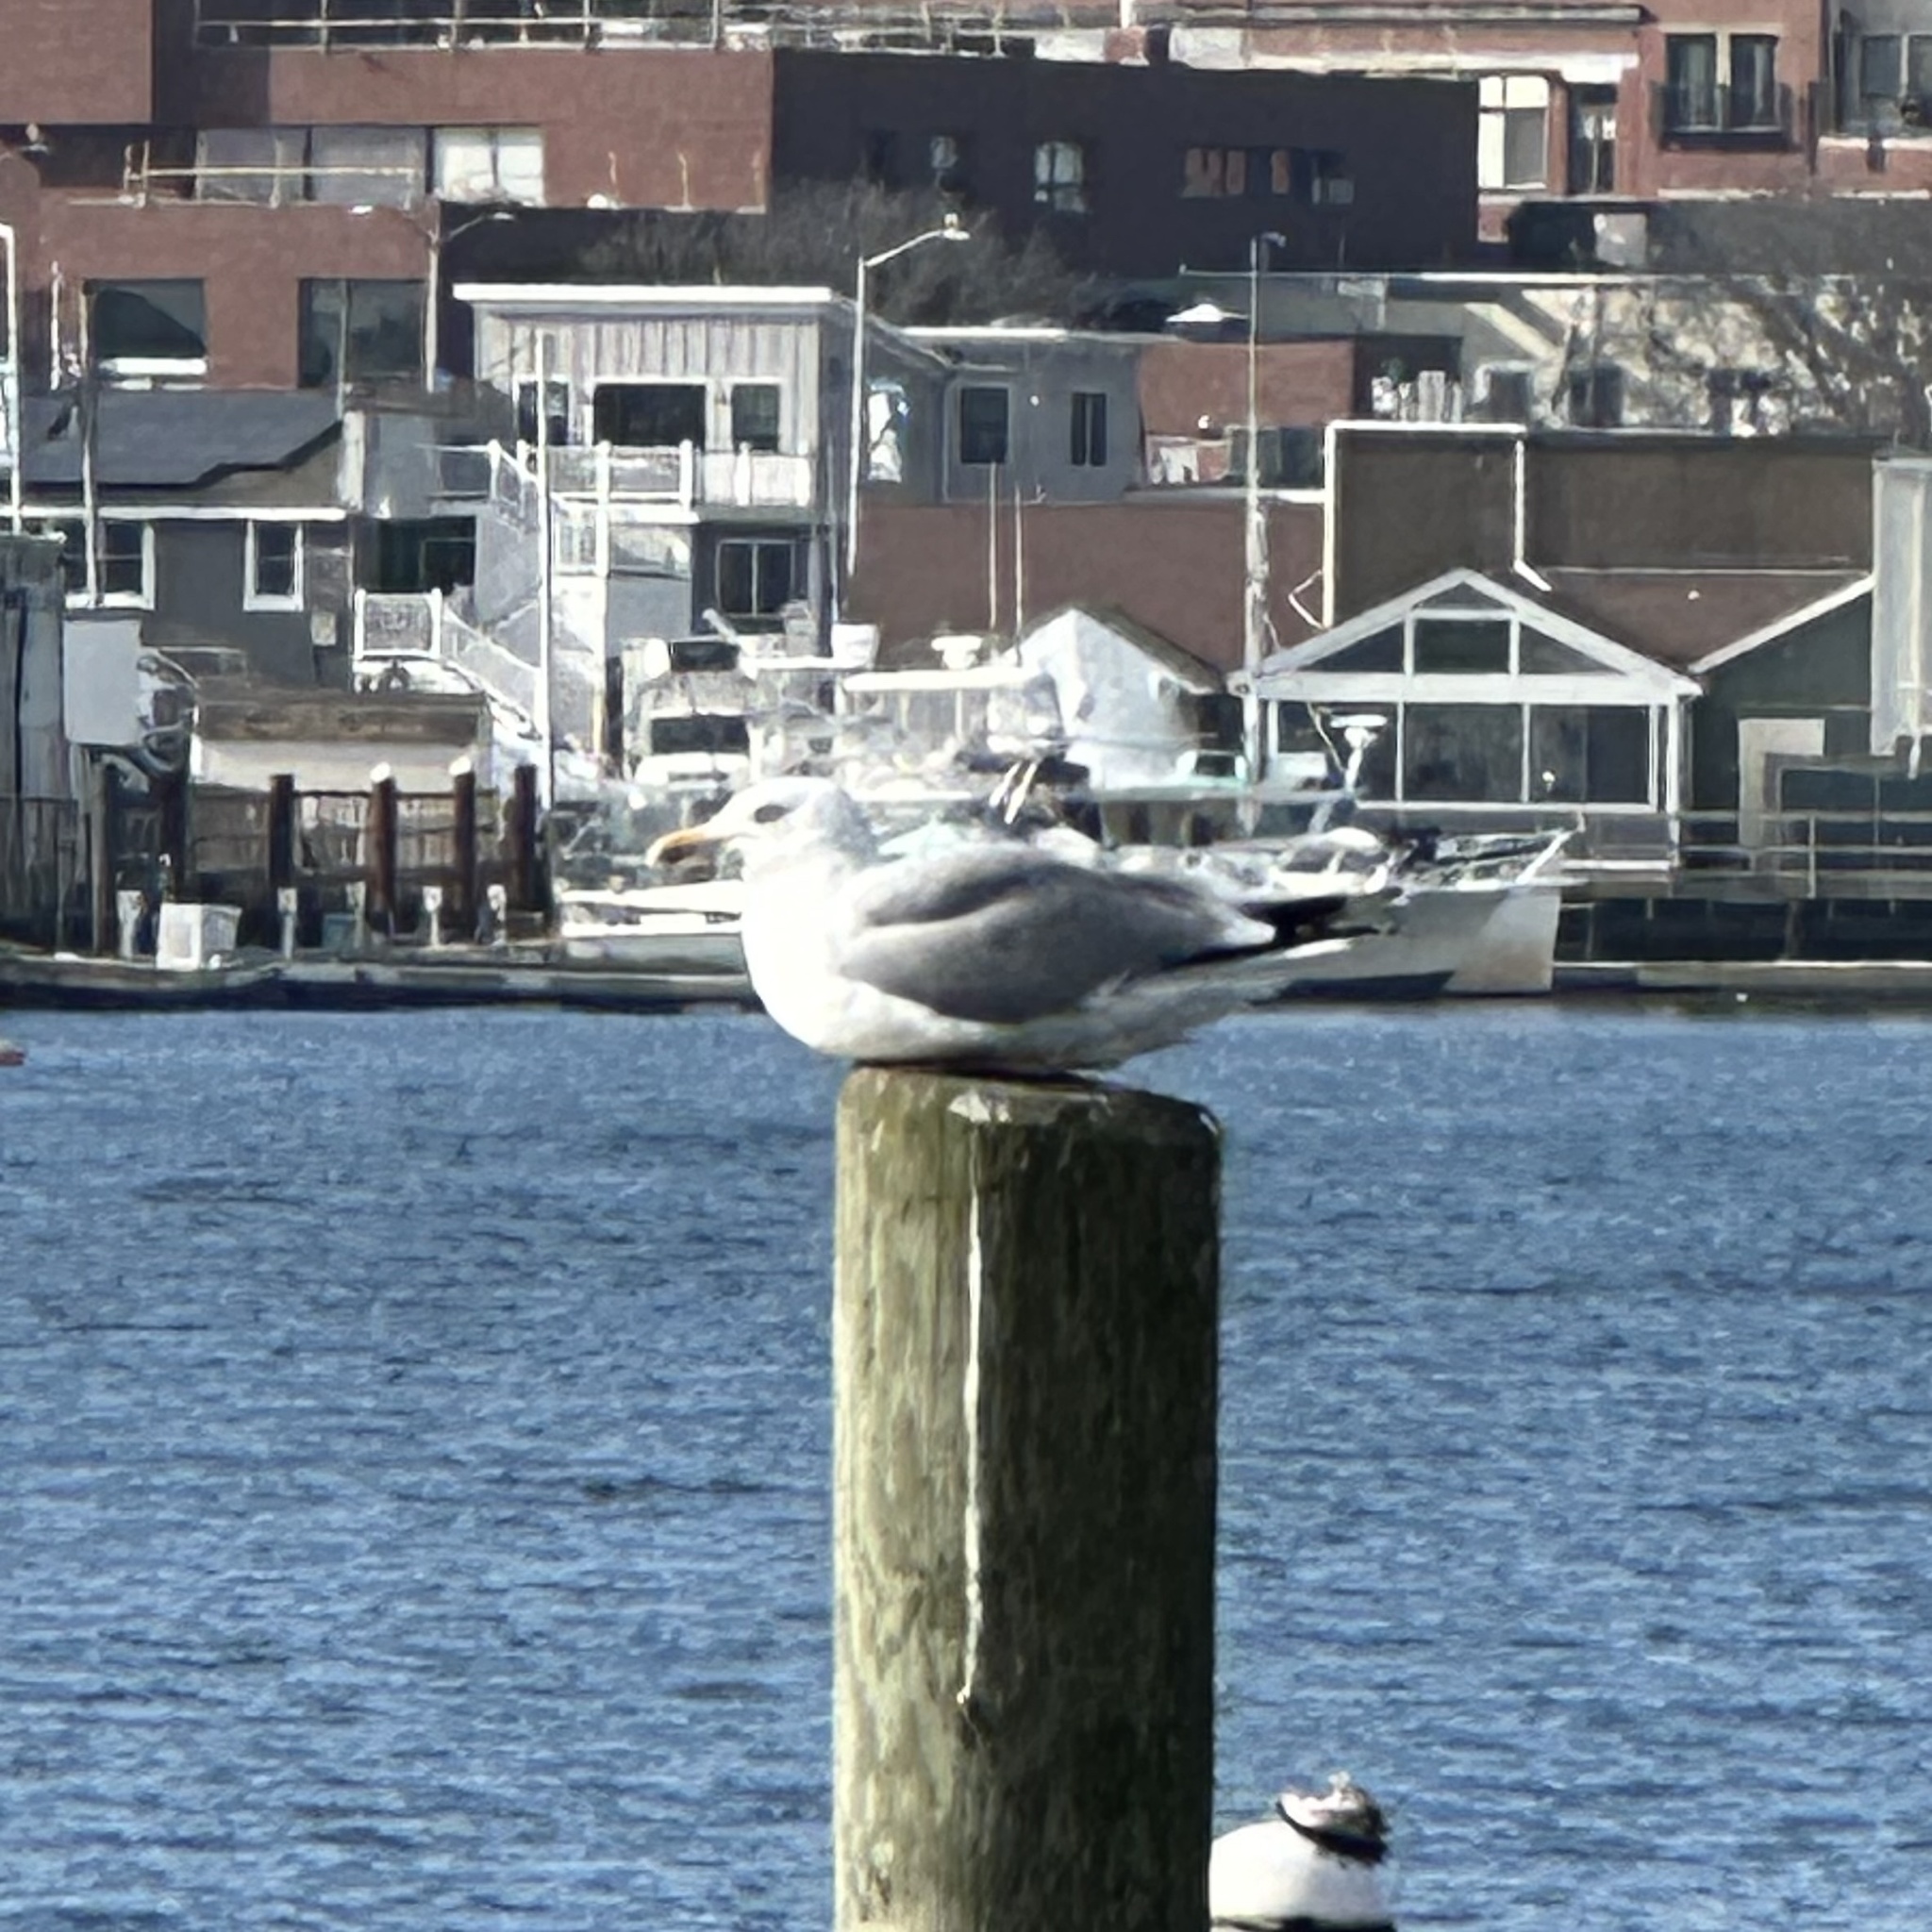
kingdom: Animalia
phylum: Chordata
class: Aves
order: Charadriiformes
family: Laridae
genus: Larus
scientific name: Larus argentatus
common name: Herring gull
